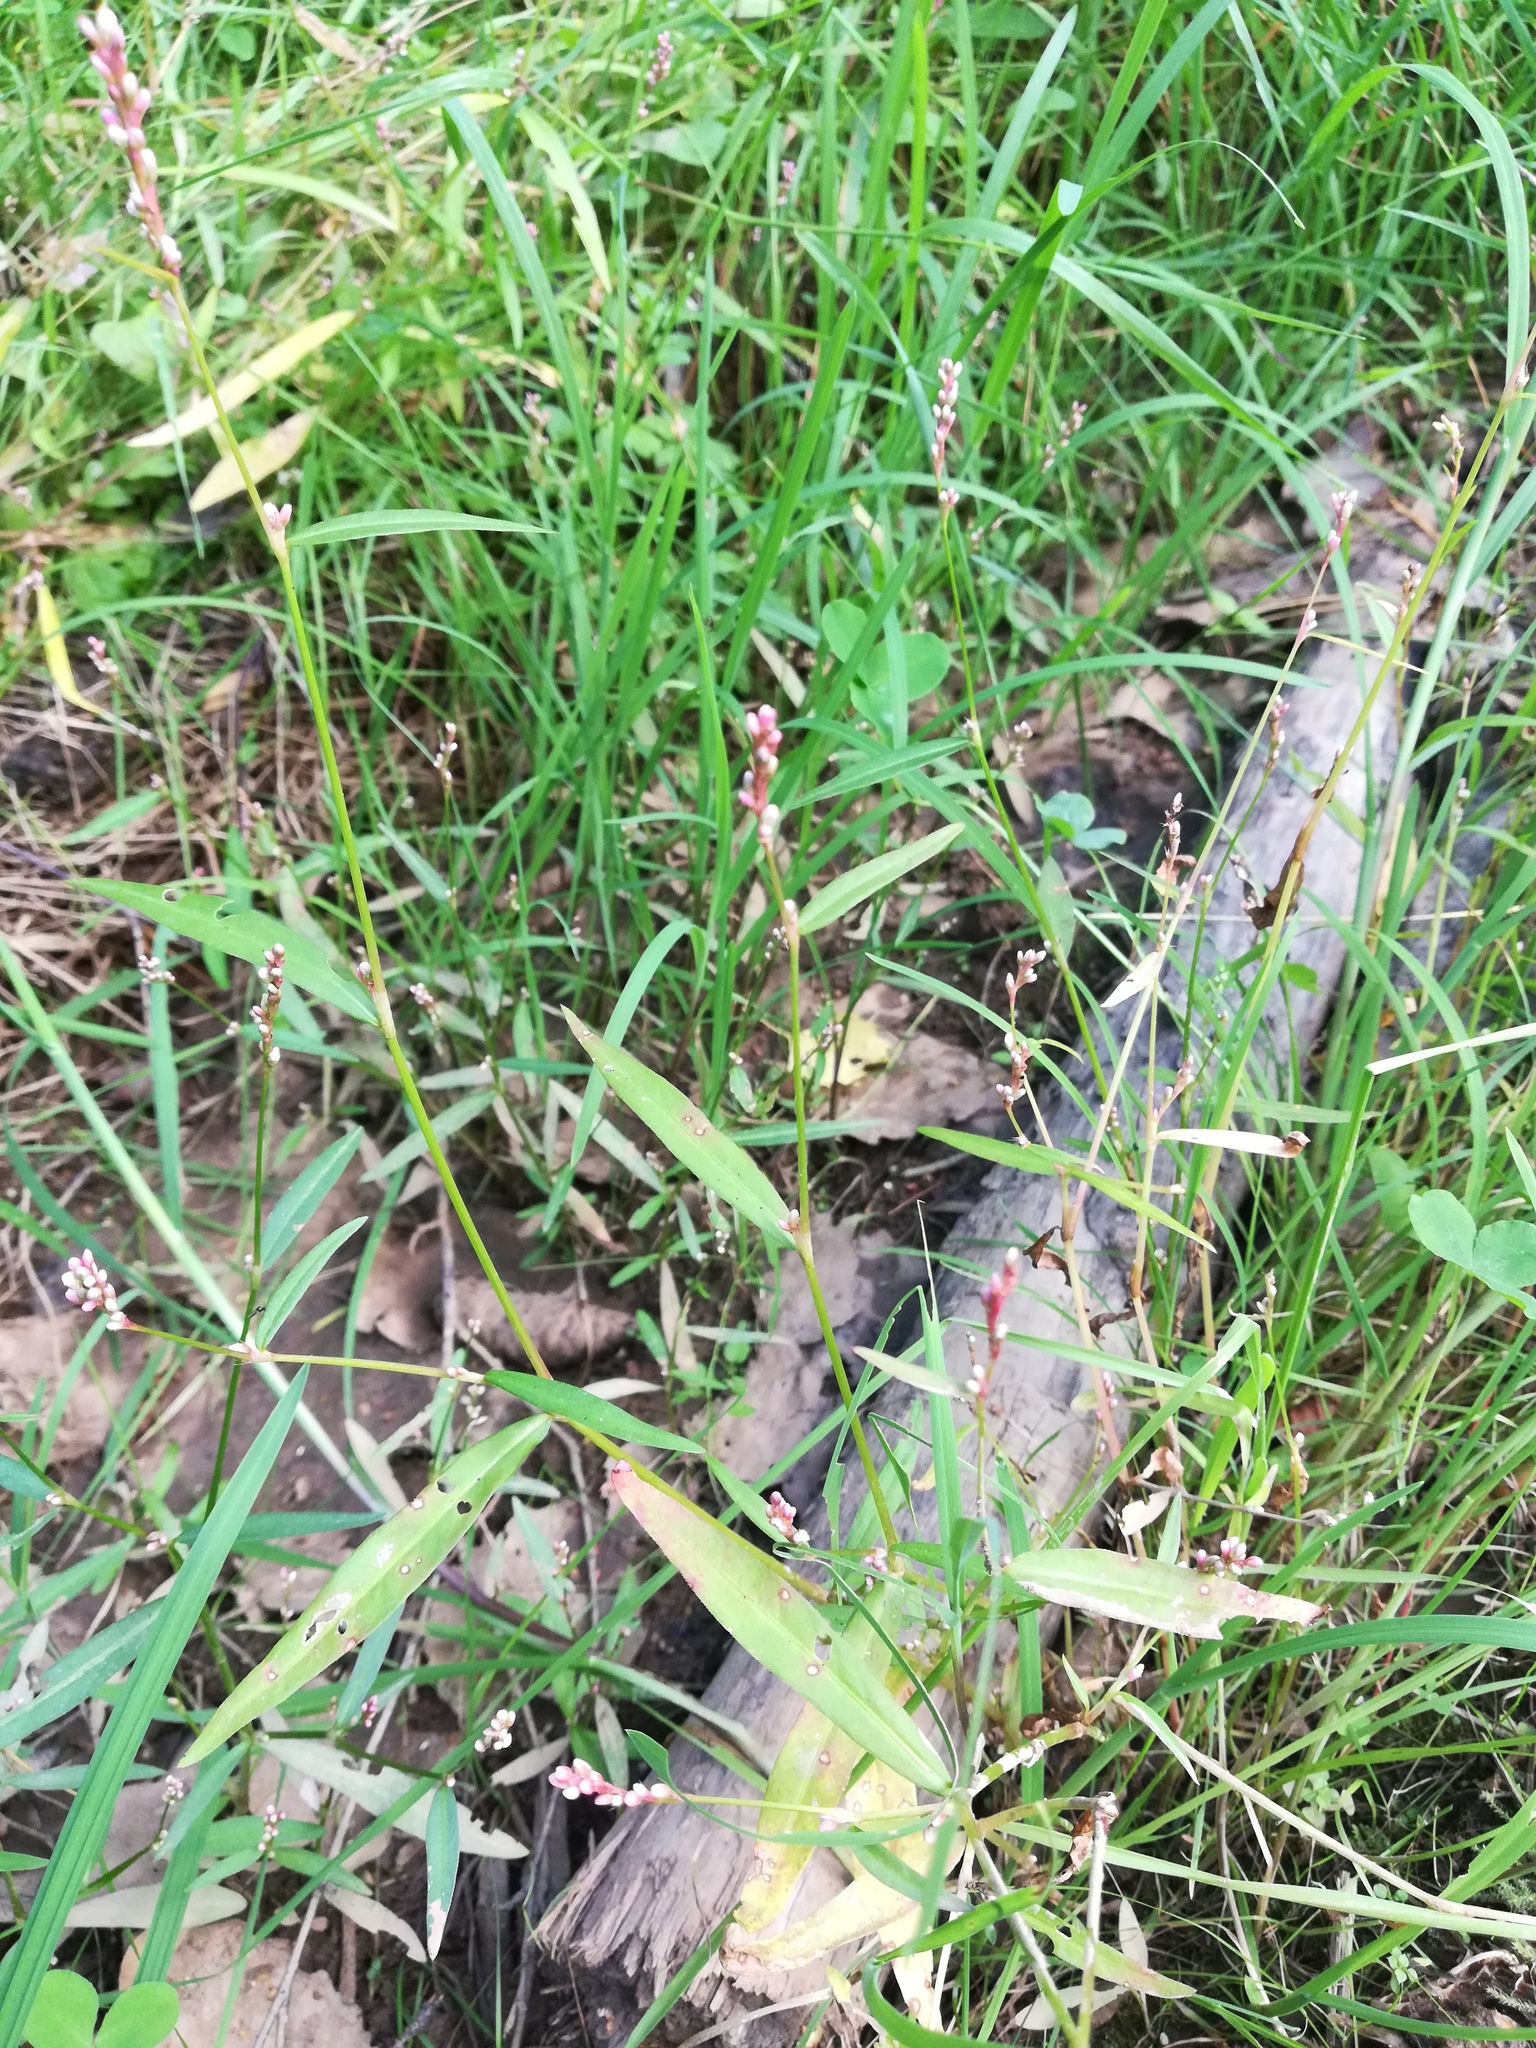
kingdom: Plantae
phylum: Tracheophyta
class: Magnoliopsida
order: Caryophyllales
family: Polygonaceae
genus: Persicaria
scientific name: Persicaria minor
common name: Small water-pepper
